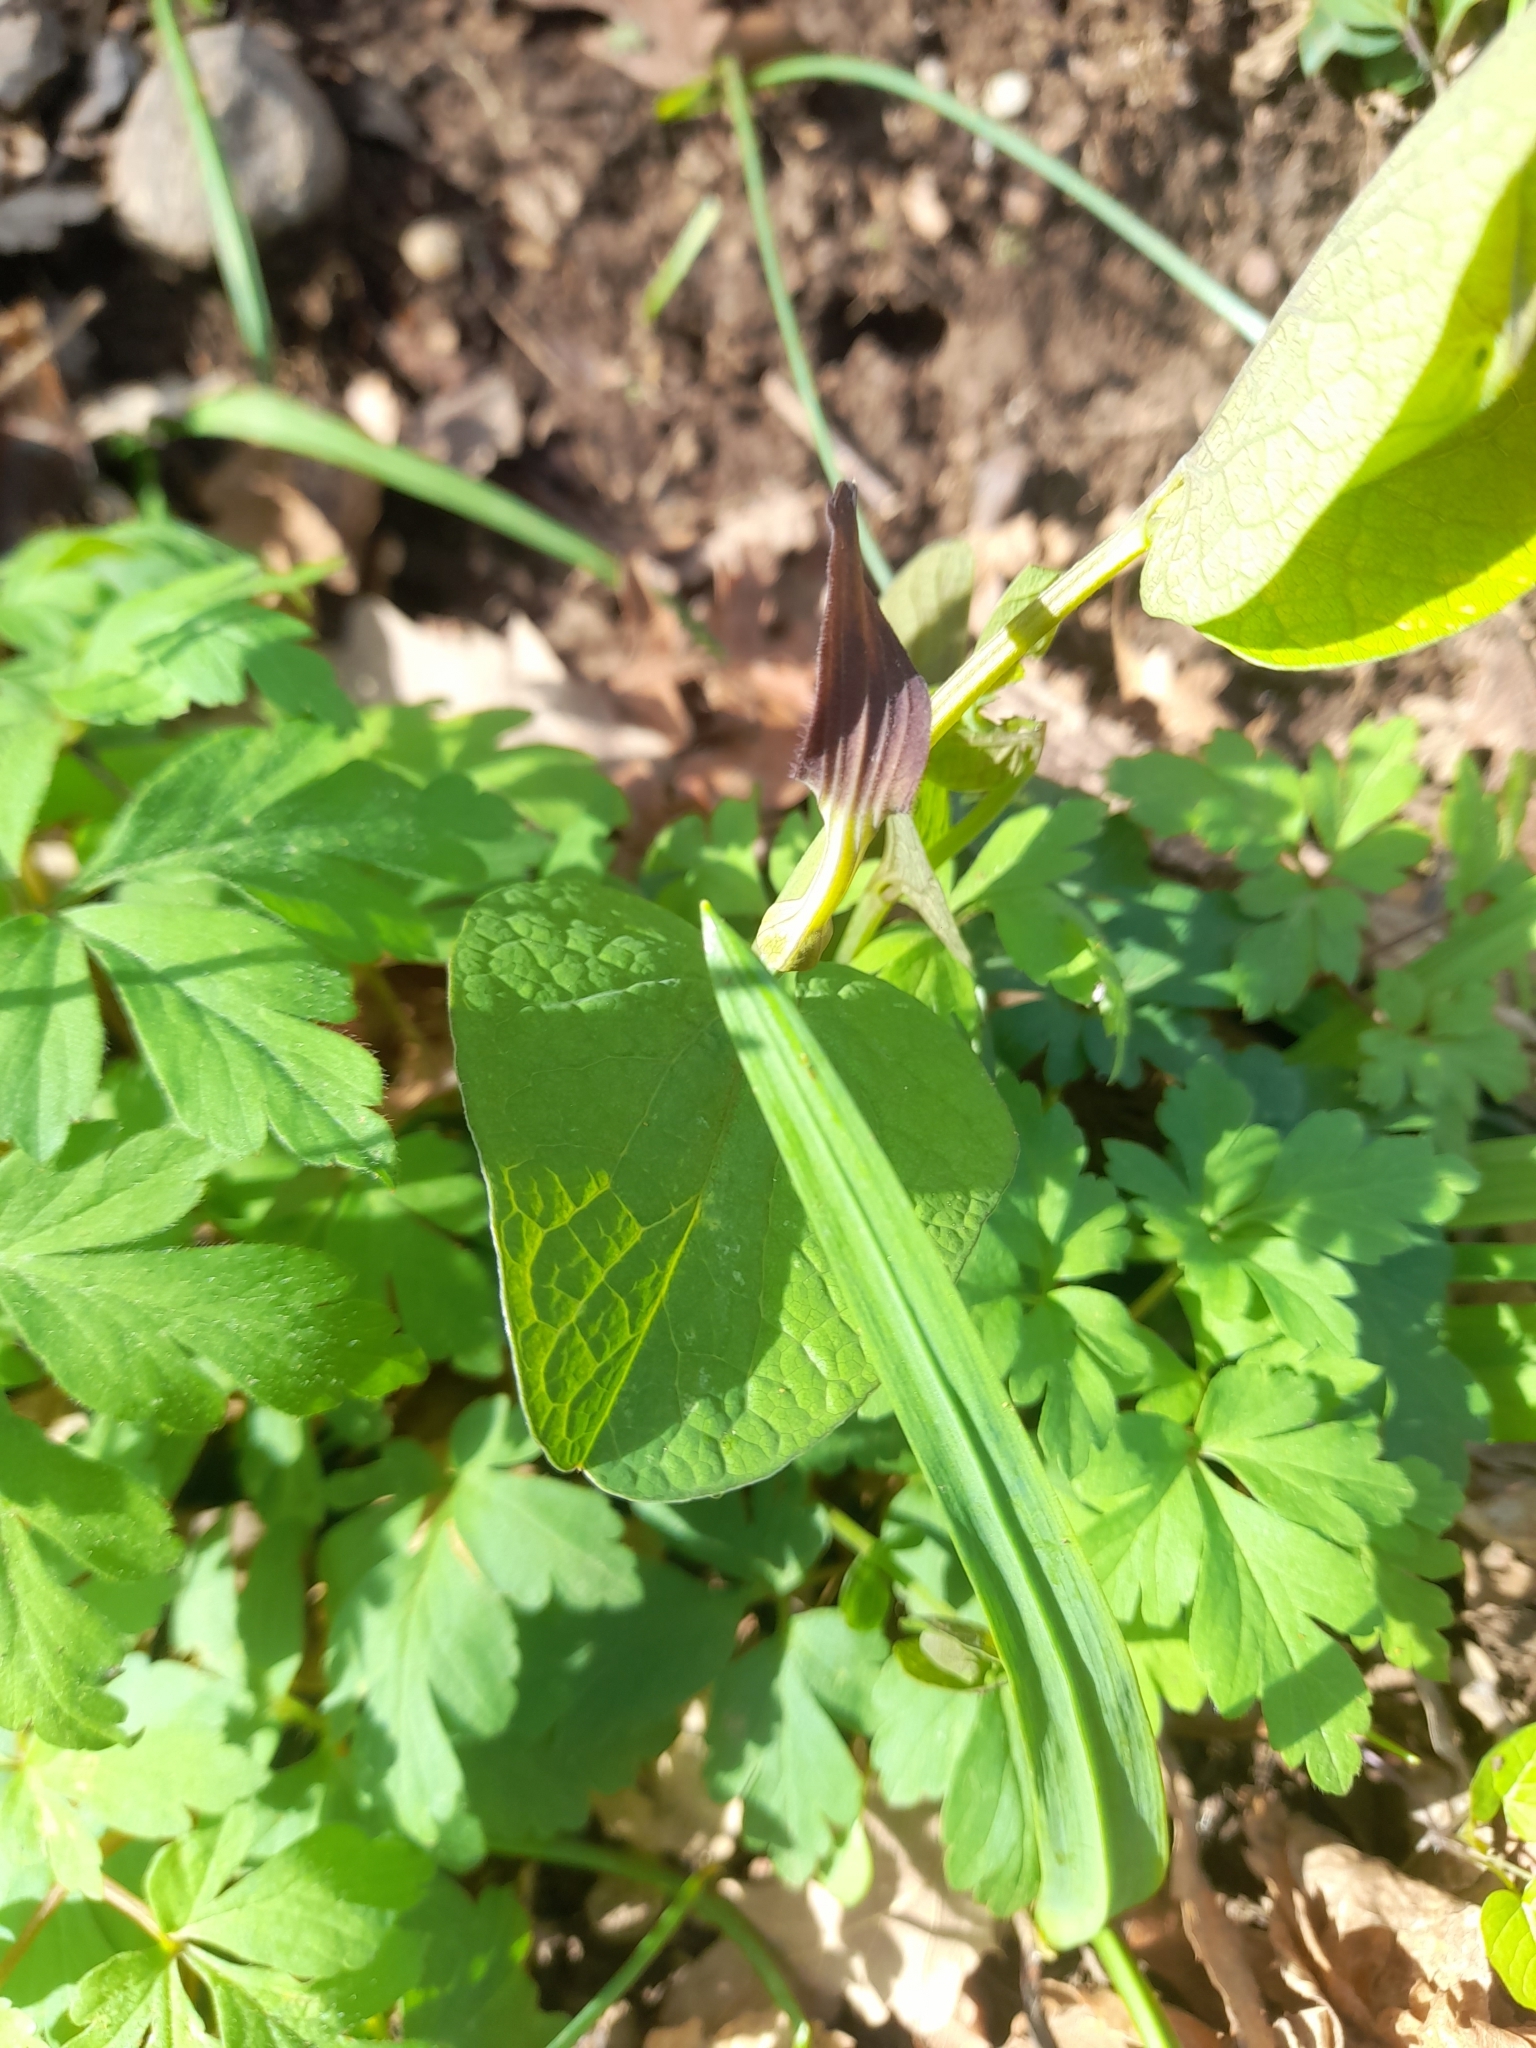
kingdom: Plantae
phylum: Tracheophyta
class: Magnoliopsida
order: Piperales
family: Aristolochiaceae
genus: Aristolochia
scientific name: Aristolochia rotunda
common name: Smearwort
